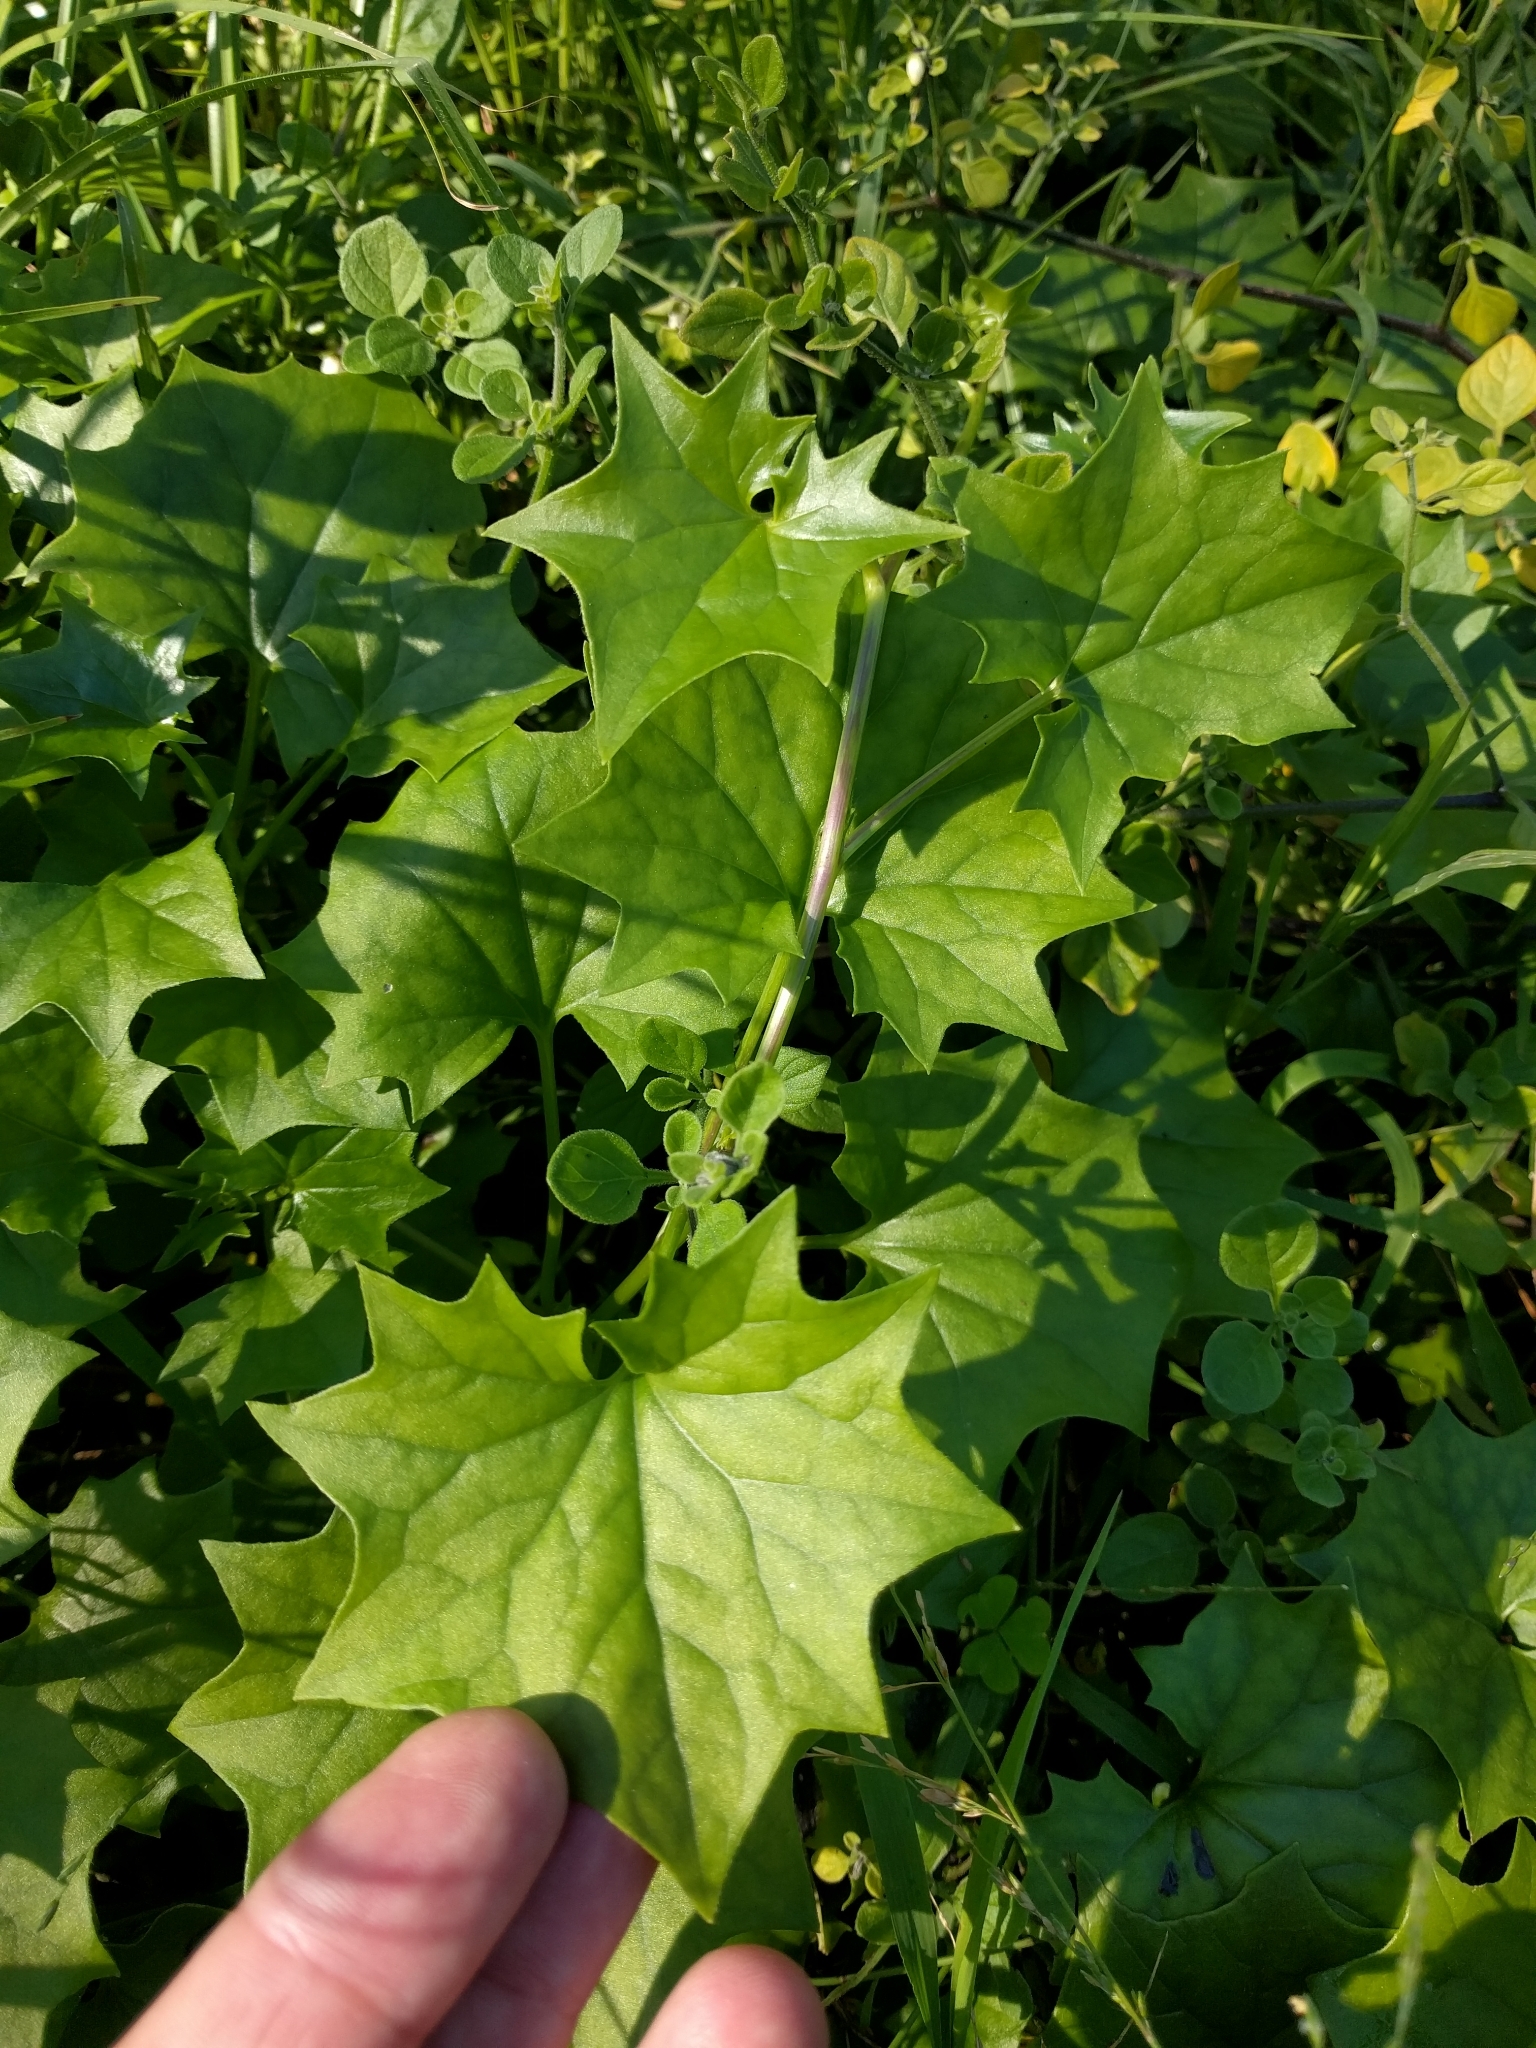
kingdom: Plantae
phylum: Tracheophyta
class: Magnoliopsida
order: Asterales
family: Asteraceae
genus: Delairea
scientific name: Delairea odorata
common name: Cape-ivy
